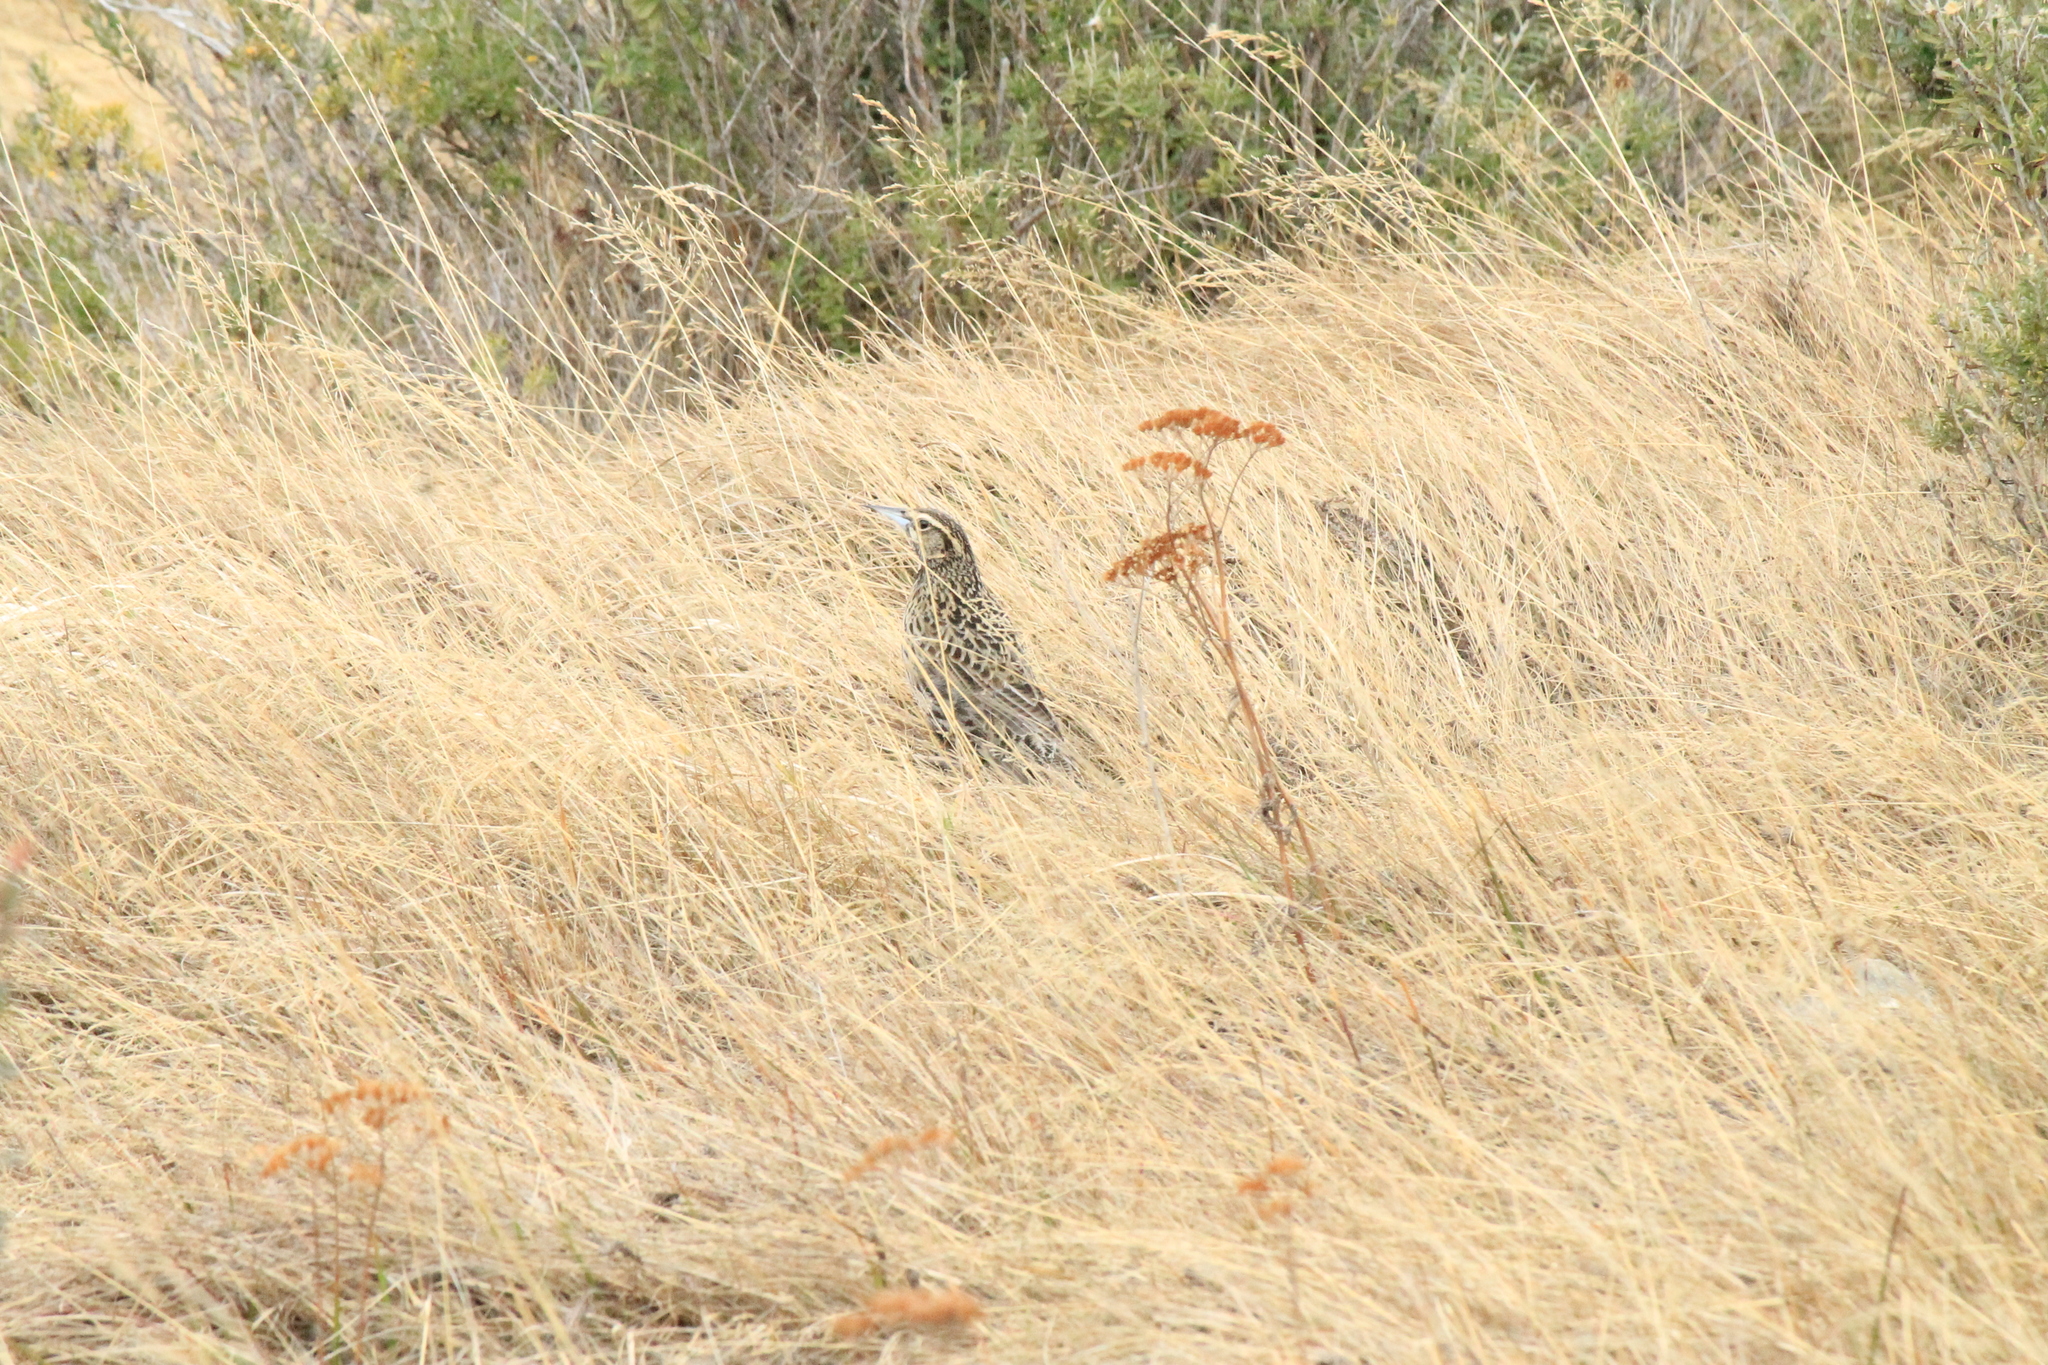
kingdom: Animalia
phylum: Chordata
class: Aves
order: Passeriformes
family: Icteridae
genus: Sturnella
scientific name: Sturnella loyca
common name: Long-tailed meadowlark
